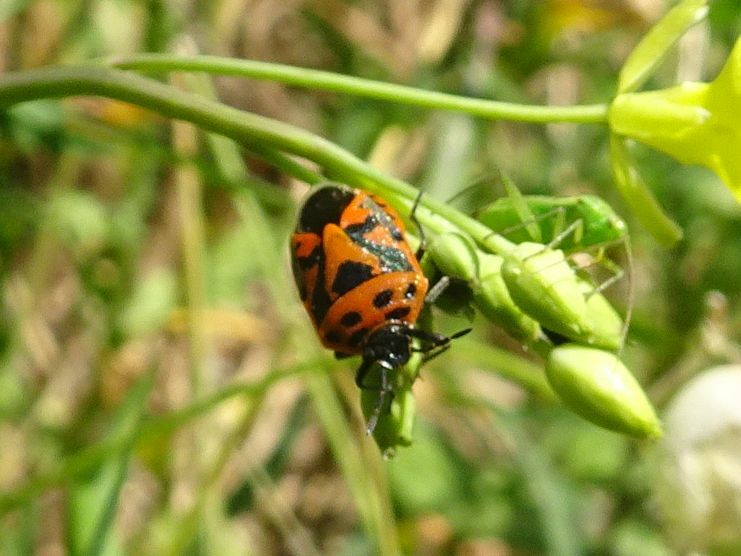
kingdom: Animalia
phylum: Arthropoda
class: Insecta
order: Hemiptera
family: Pentatomidae
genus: Eurydema
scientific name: Eurydema ornata
